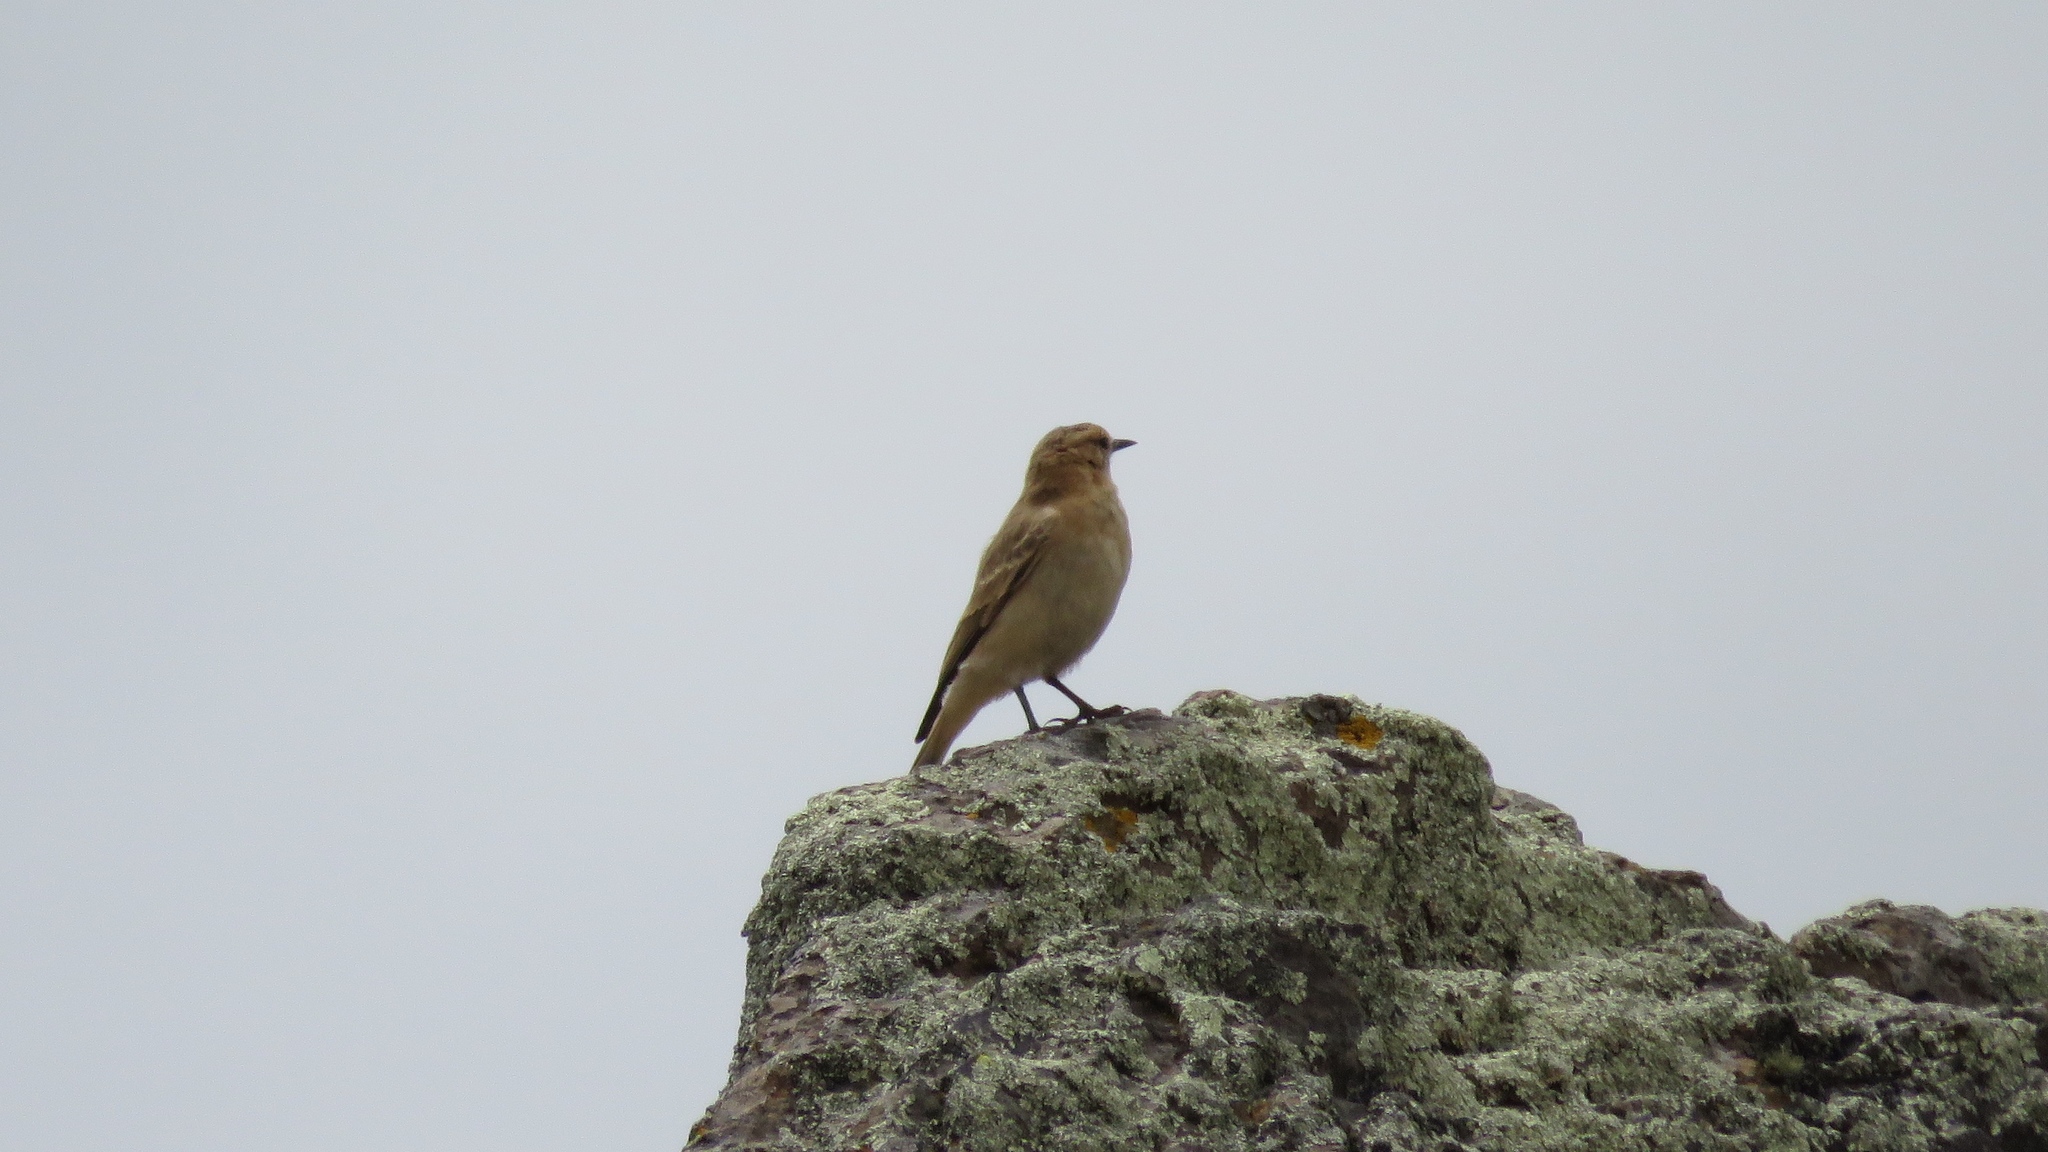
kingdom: Animalia
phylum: Chordata
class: Aves
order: Passeriformes
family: Furnariidae
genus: Geositta
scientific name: Geositta saxicolina
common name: Dark-winged miner
